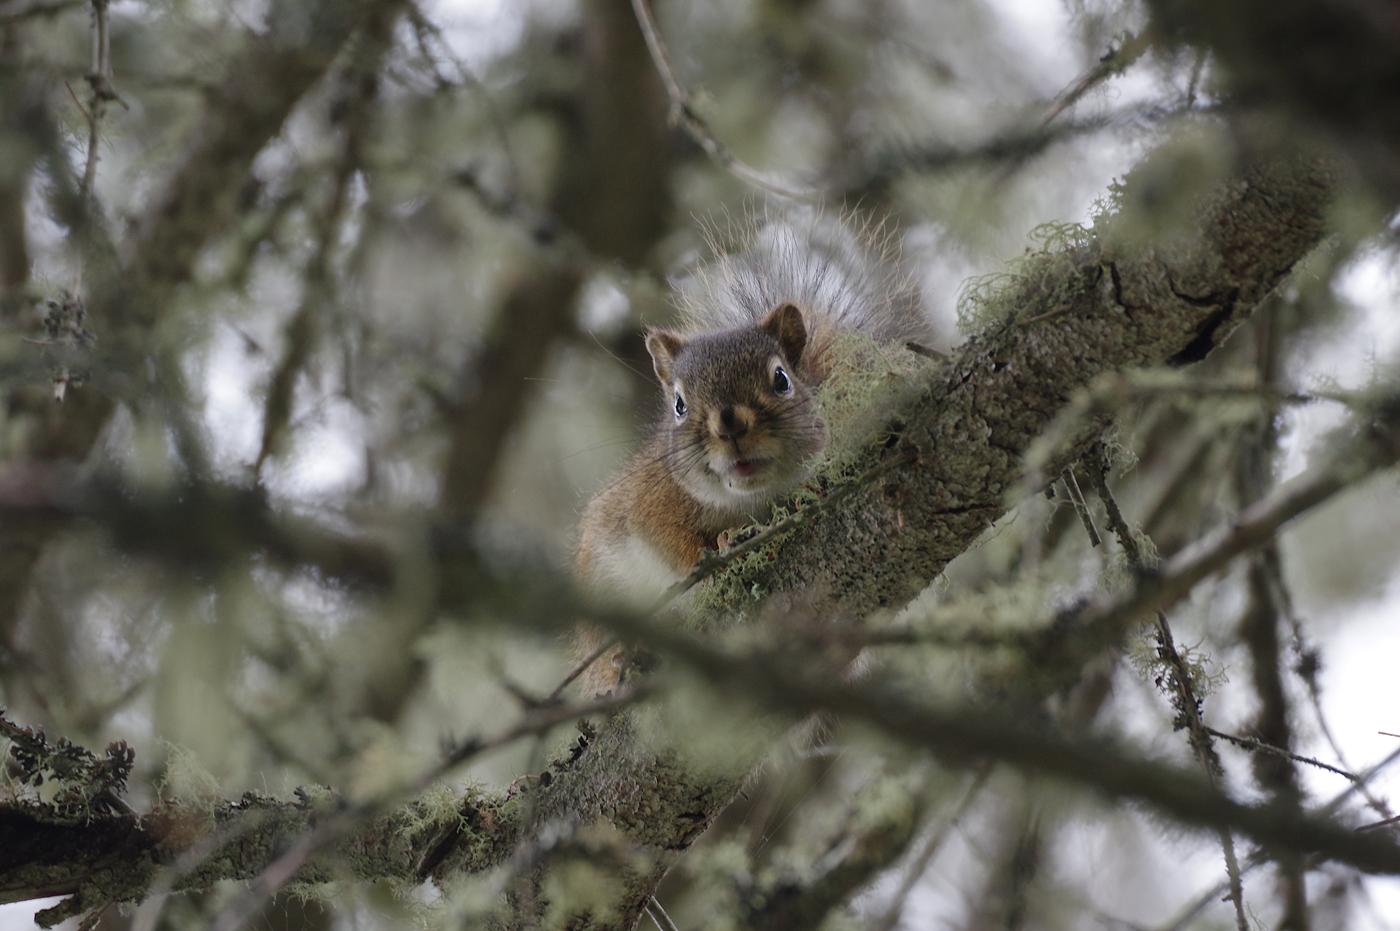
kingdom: Animalia
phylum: Chordata
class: Mammalia
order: Rodentia
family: Sciuridae
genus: Tamiasciurus
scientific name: Tamiasciurus hudsonicus
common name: Red squirrel
